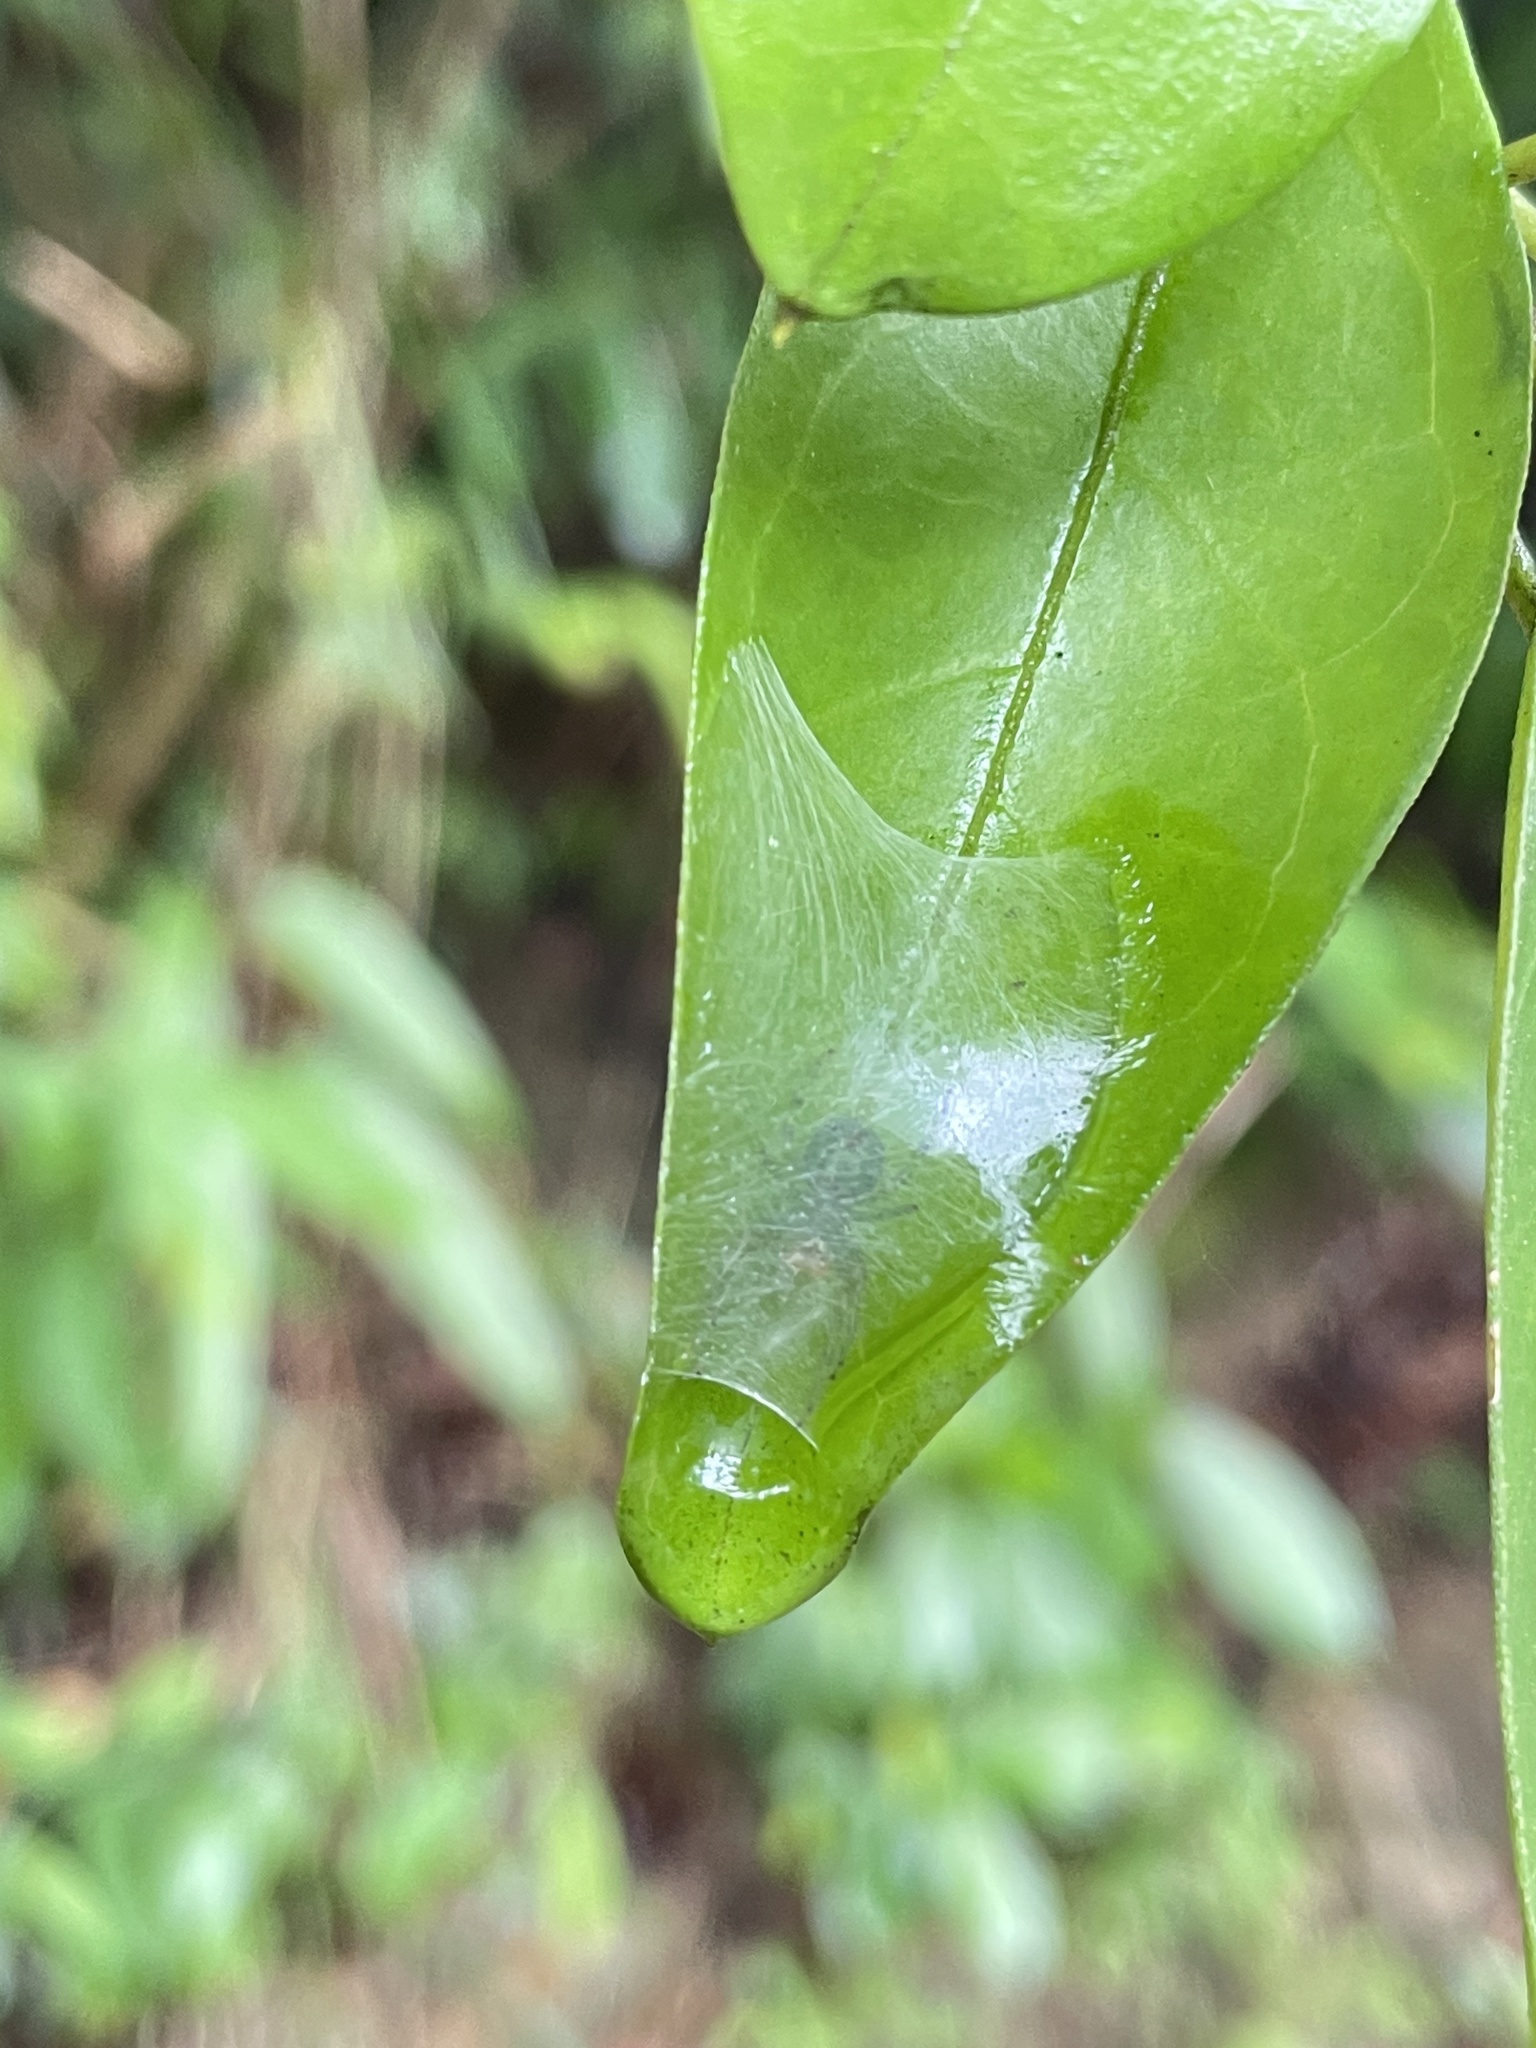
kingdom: Animalia
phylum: Arthropoda
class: Arachnida
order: Araneae
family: Araneidae
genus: Bijoaraneus
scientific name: Bijoaraneus mitificus
